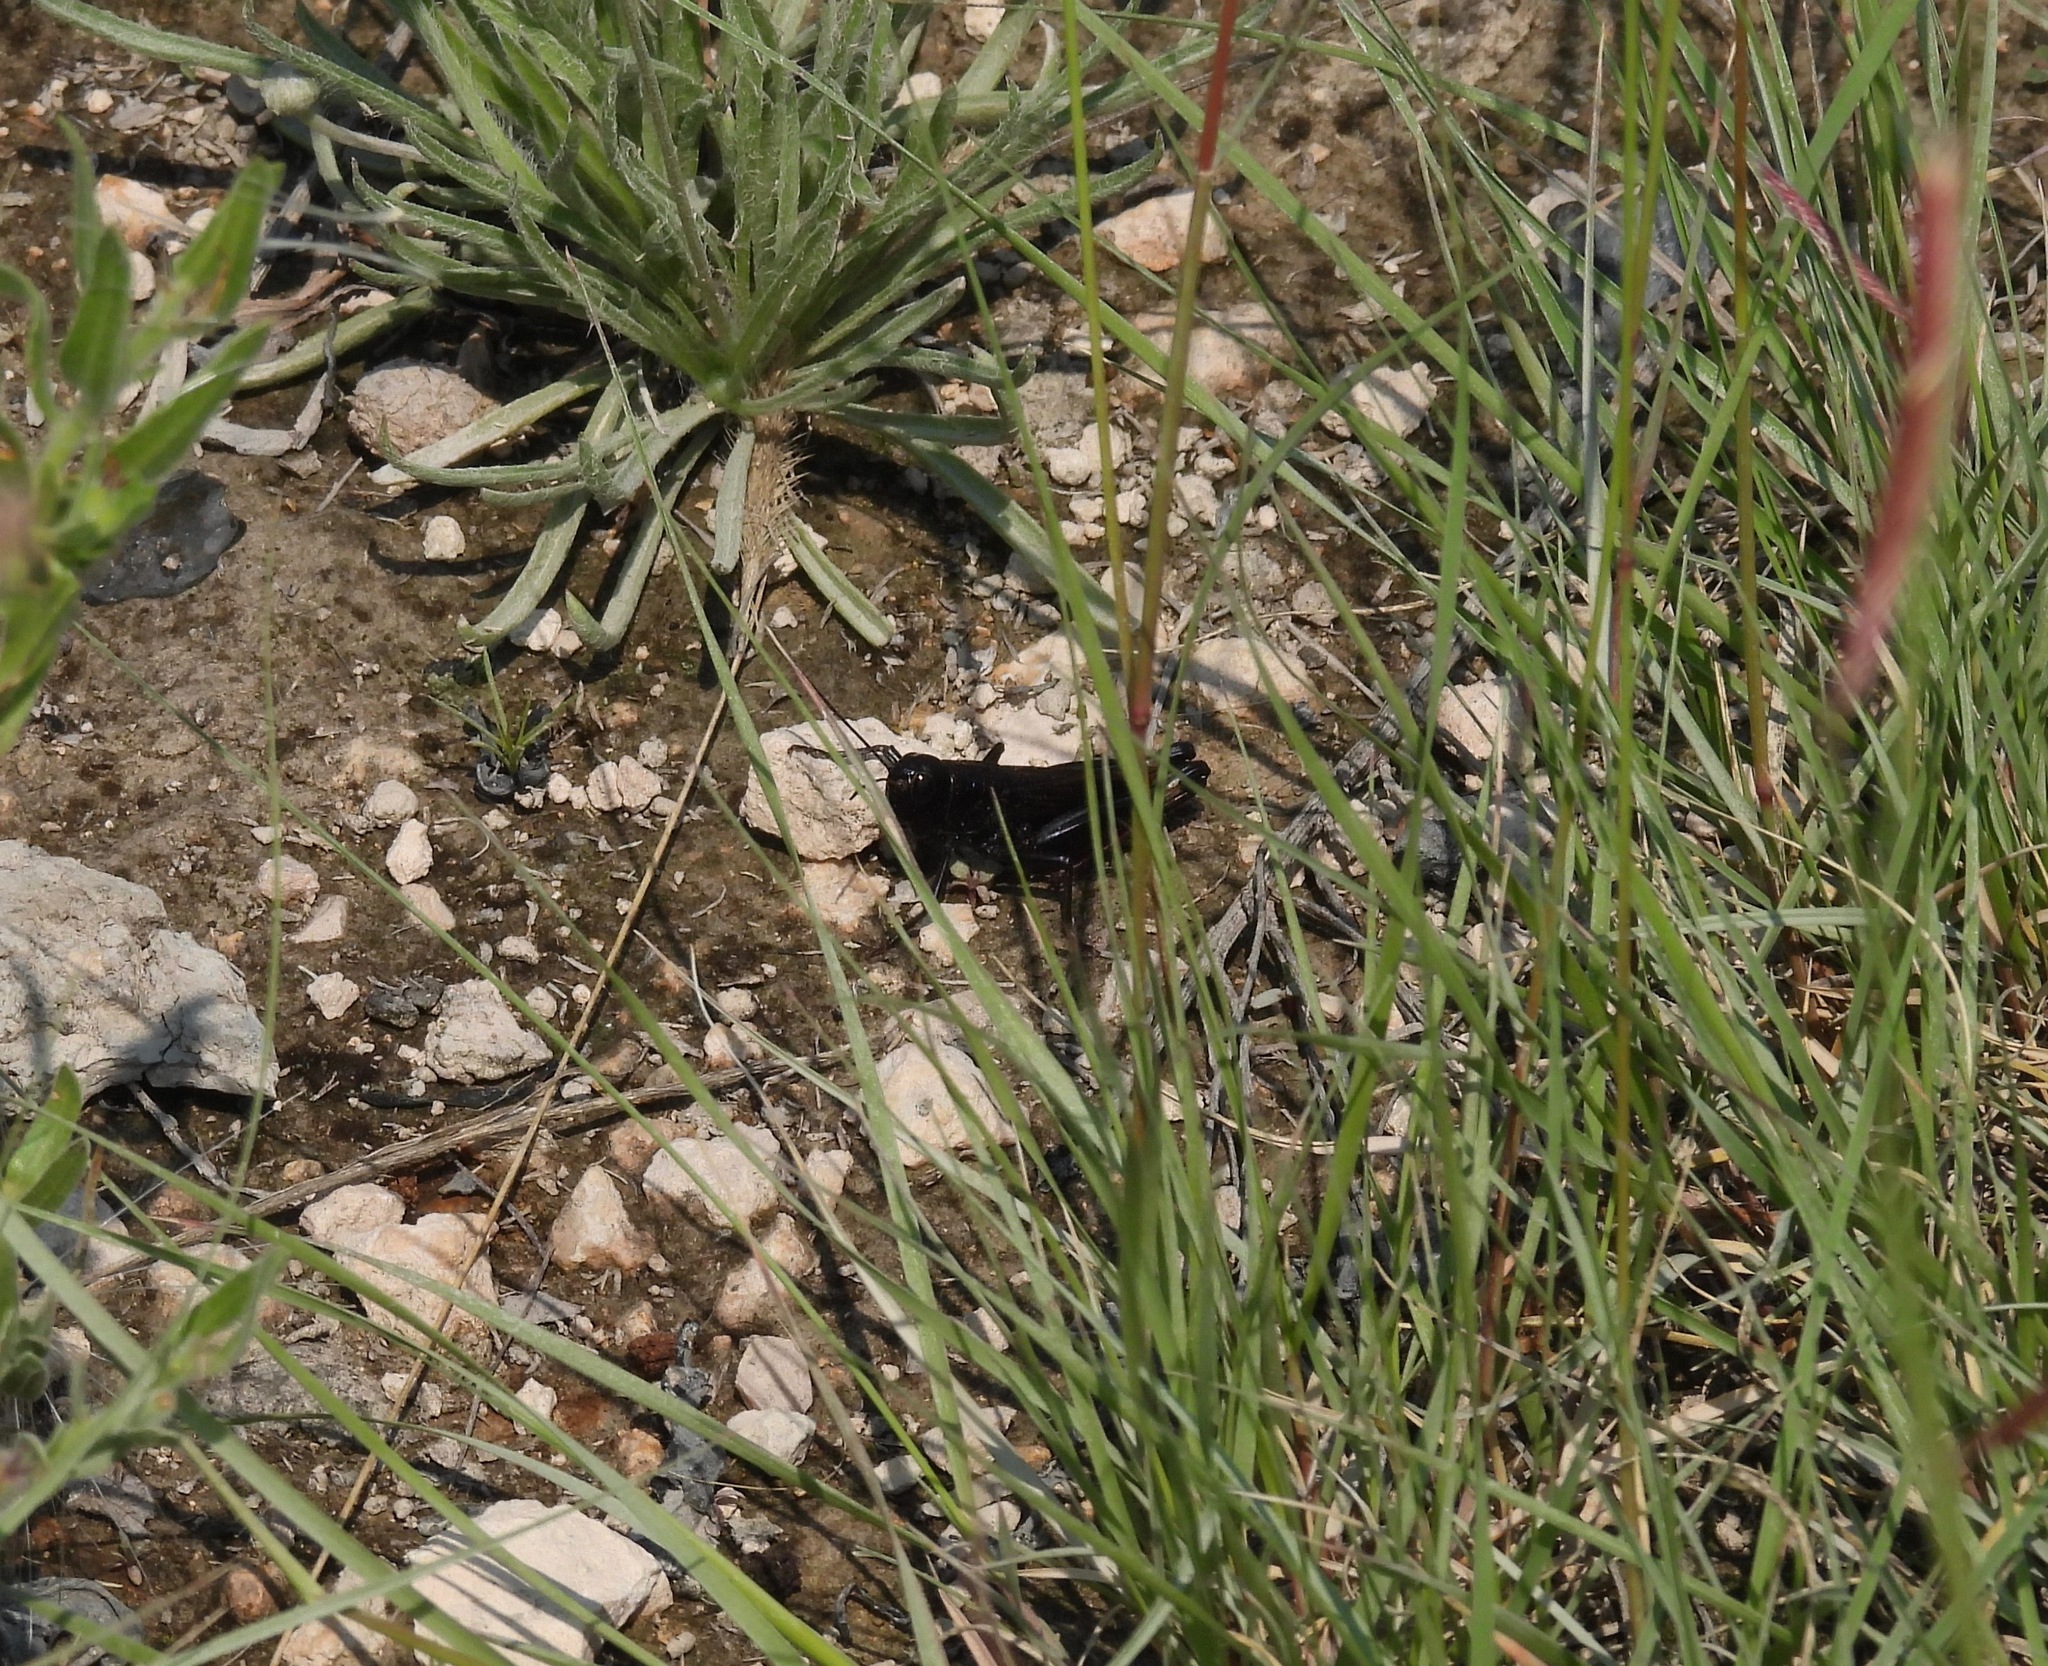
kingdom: Animalia
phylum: Arthropoda
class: Insecta
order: Orthoptera
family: Acrididae
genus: Boopedon
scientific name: Boopedon nubilum
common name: Ebony grasshopper
